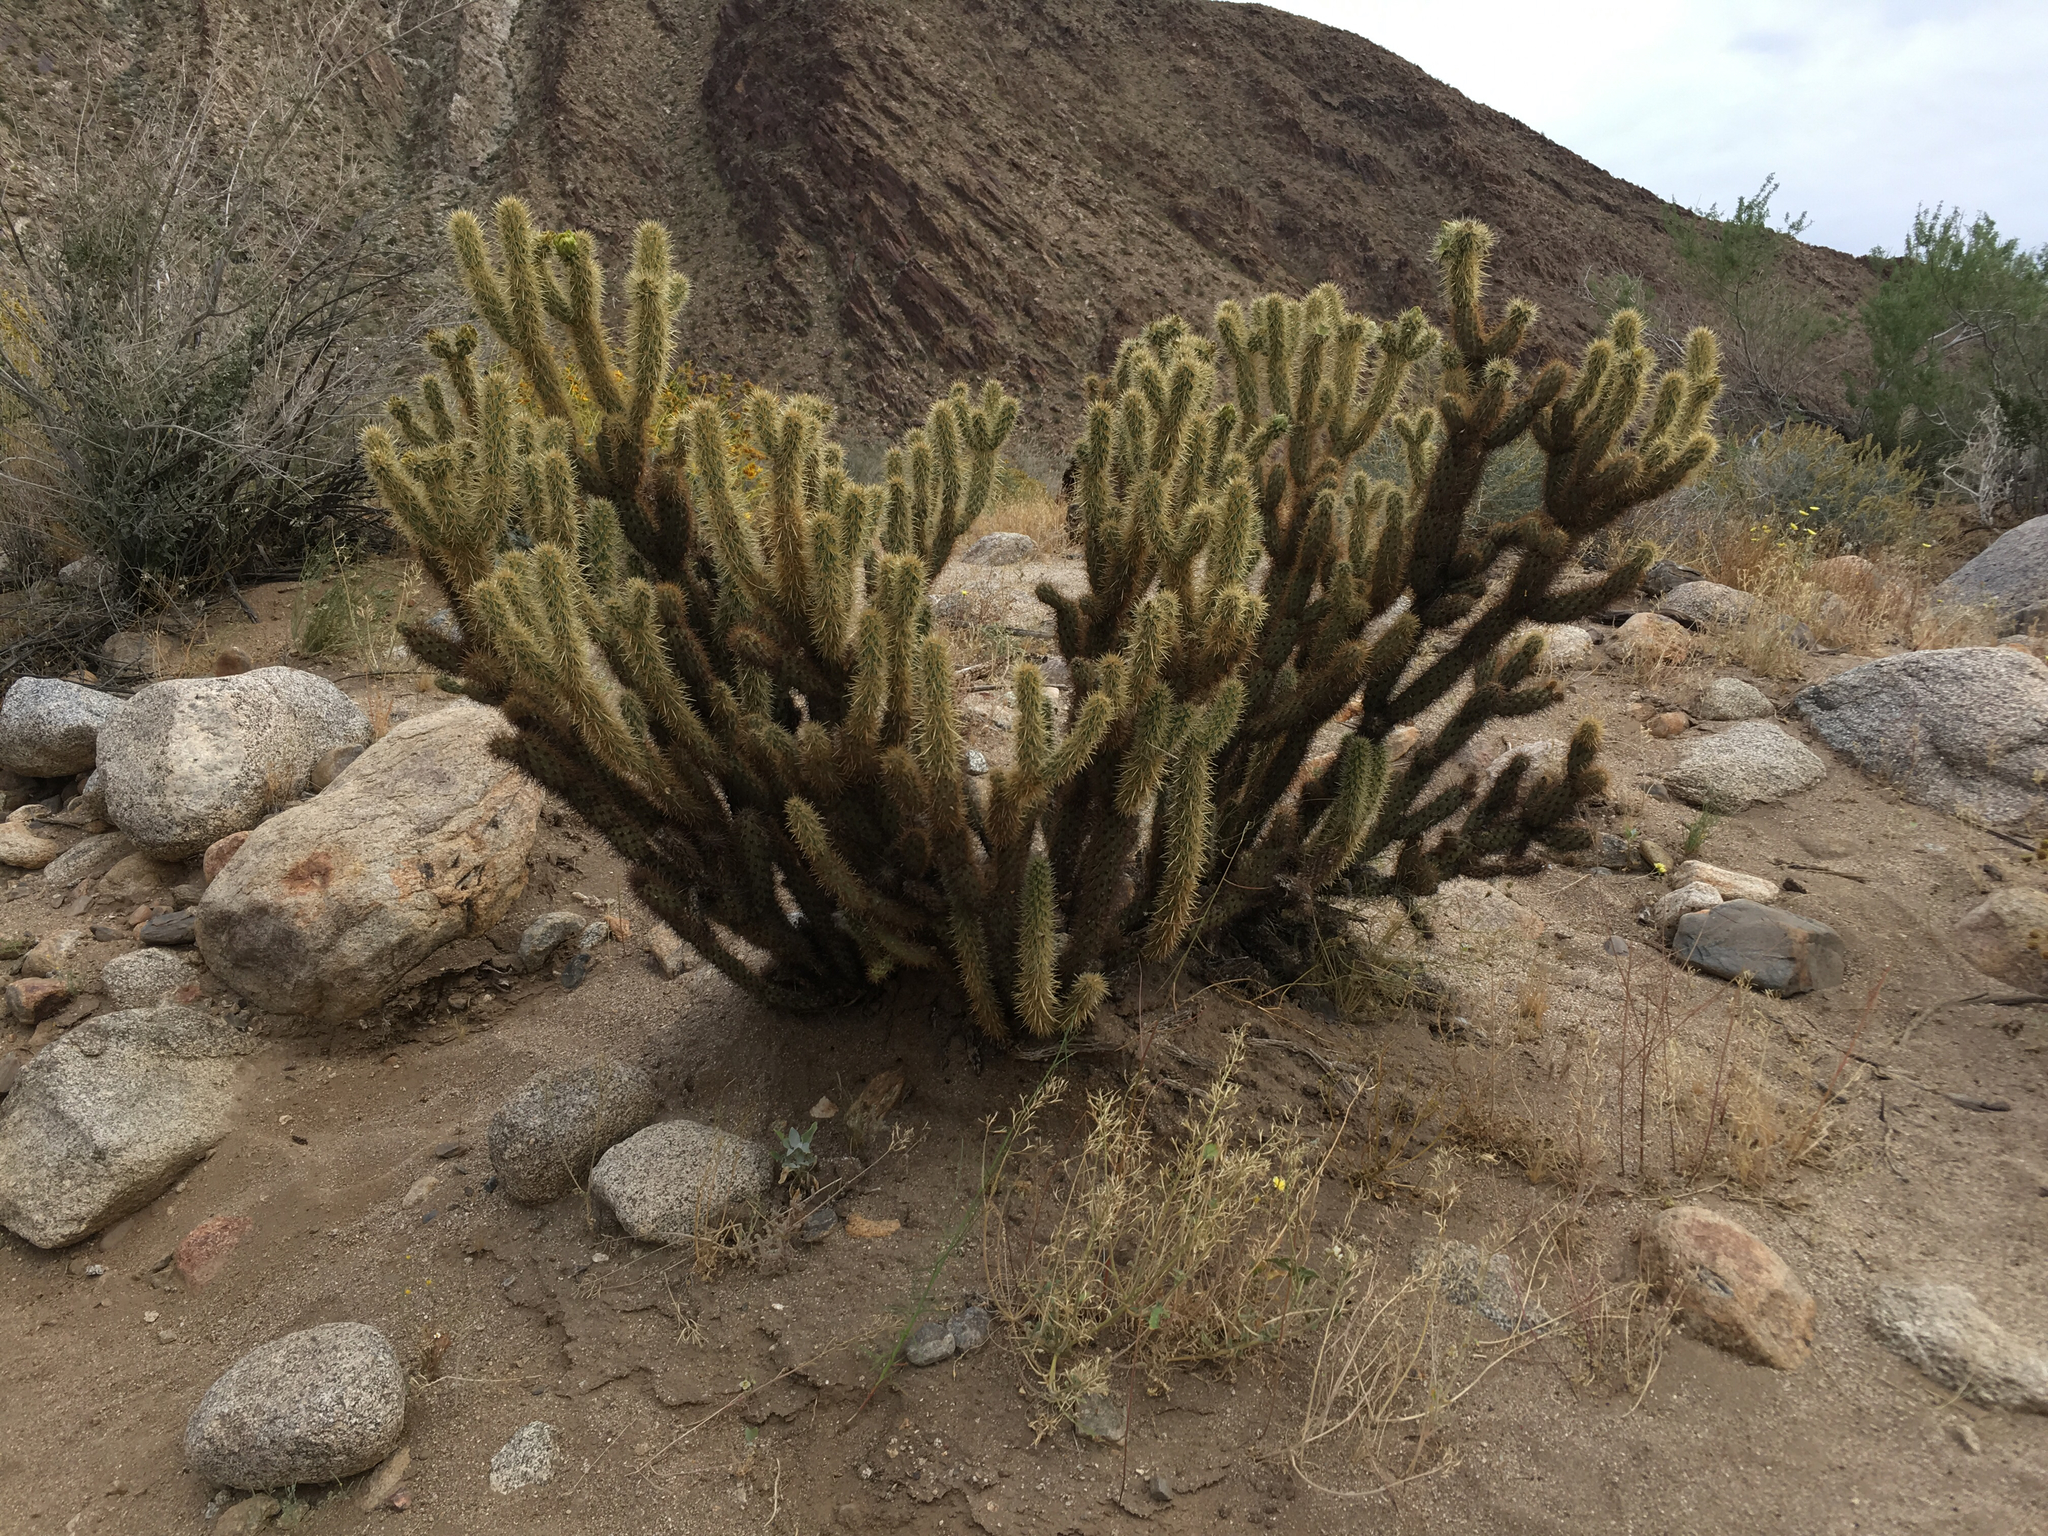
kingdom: Plantae
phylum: Tracheophyta
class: Magnoliopsida
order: Caryophyllales
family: Cactaceae
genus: Cylindropuntia
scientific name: Cylindropuntia ganderi
